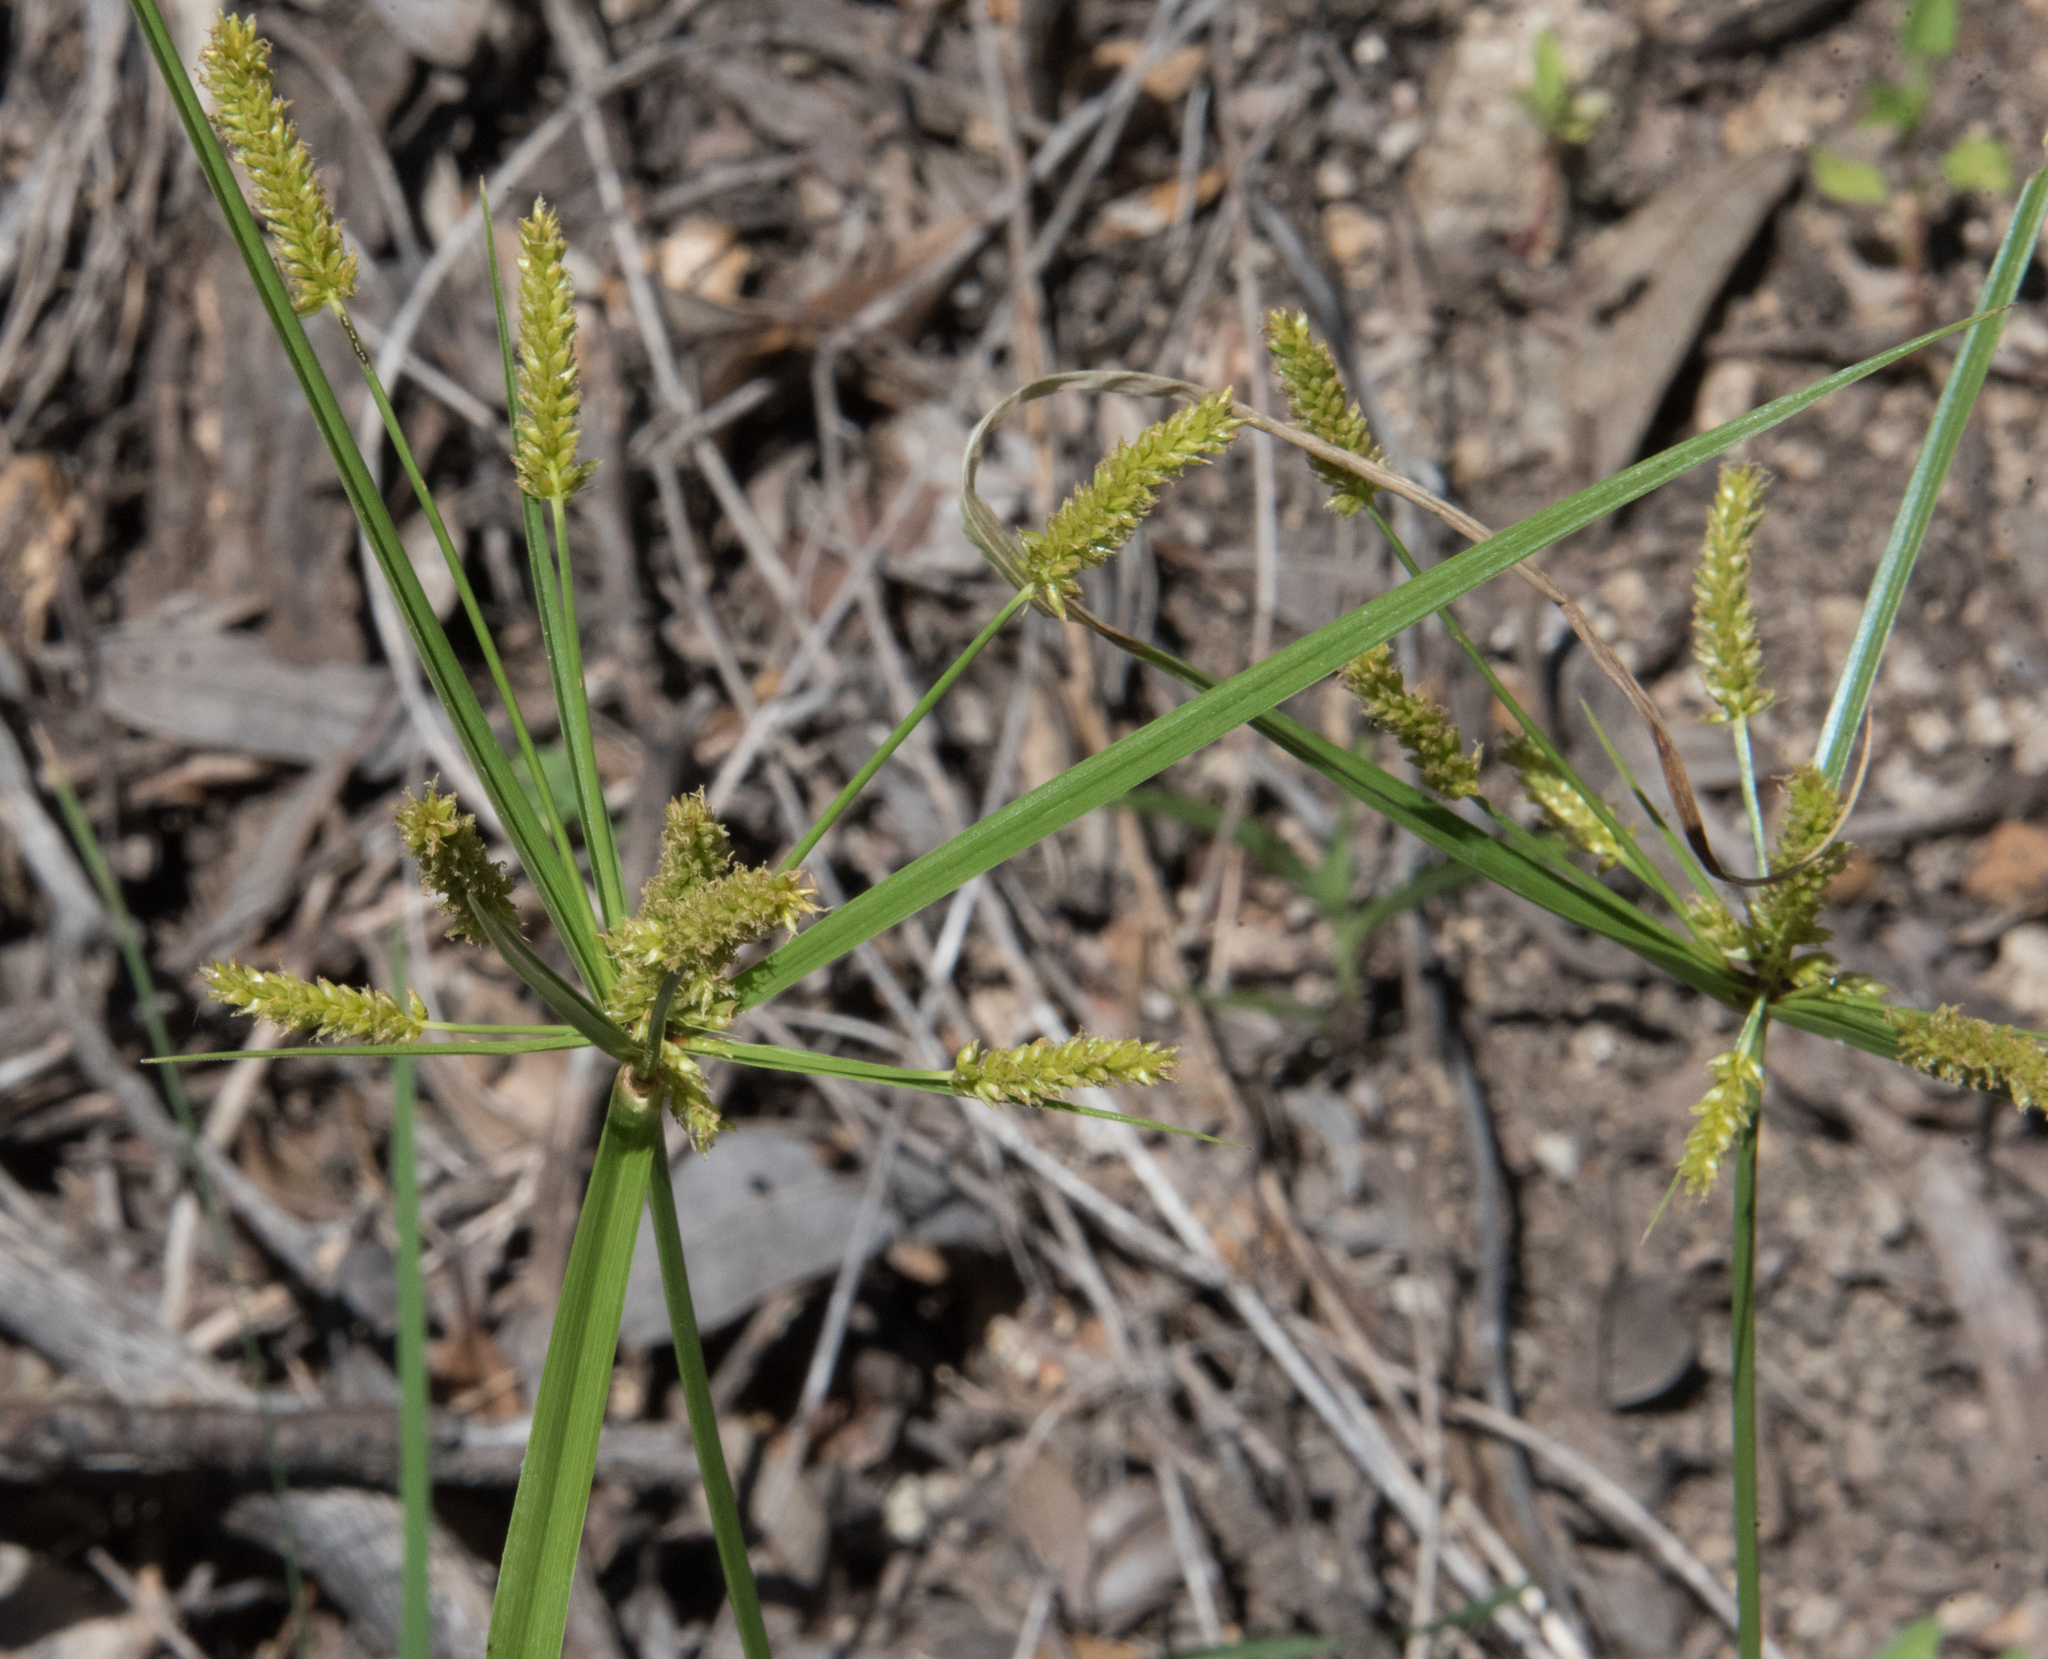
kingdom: Plantae
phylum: Tracheophyta
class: Liliopsida
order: Poales
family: Cyperaceae
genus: Cyperus
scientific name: Cyperus mutisii
